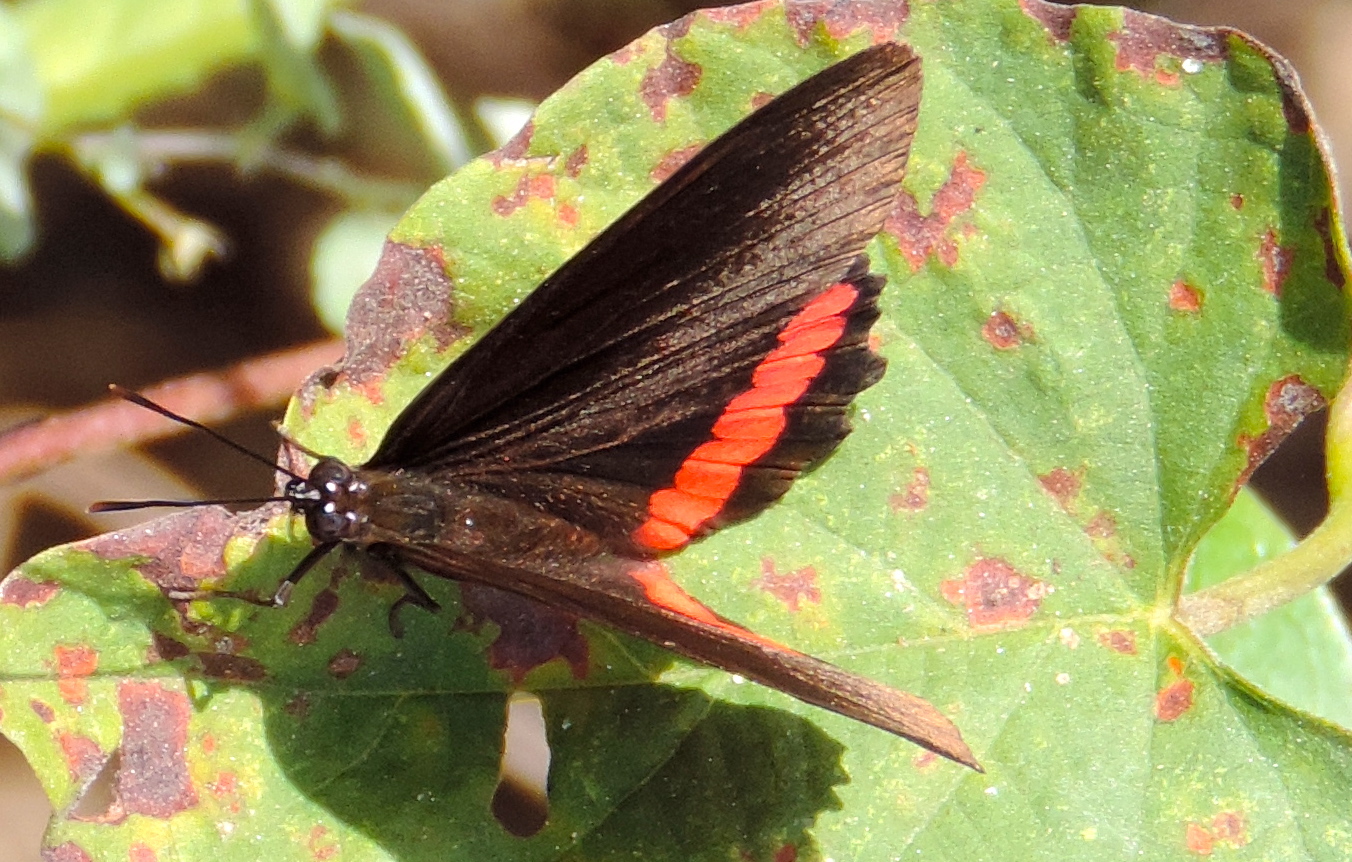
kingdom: Animalia
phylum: Arthropoda
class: Insecta
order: Lepidoptera
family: Nymphalidae
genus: Biblis
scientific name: Biblis aganisa
